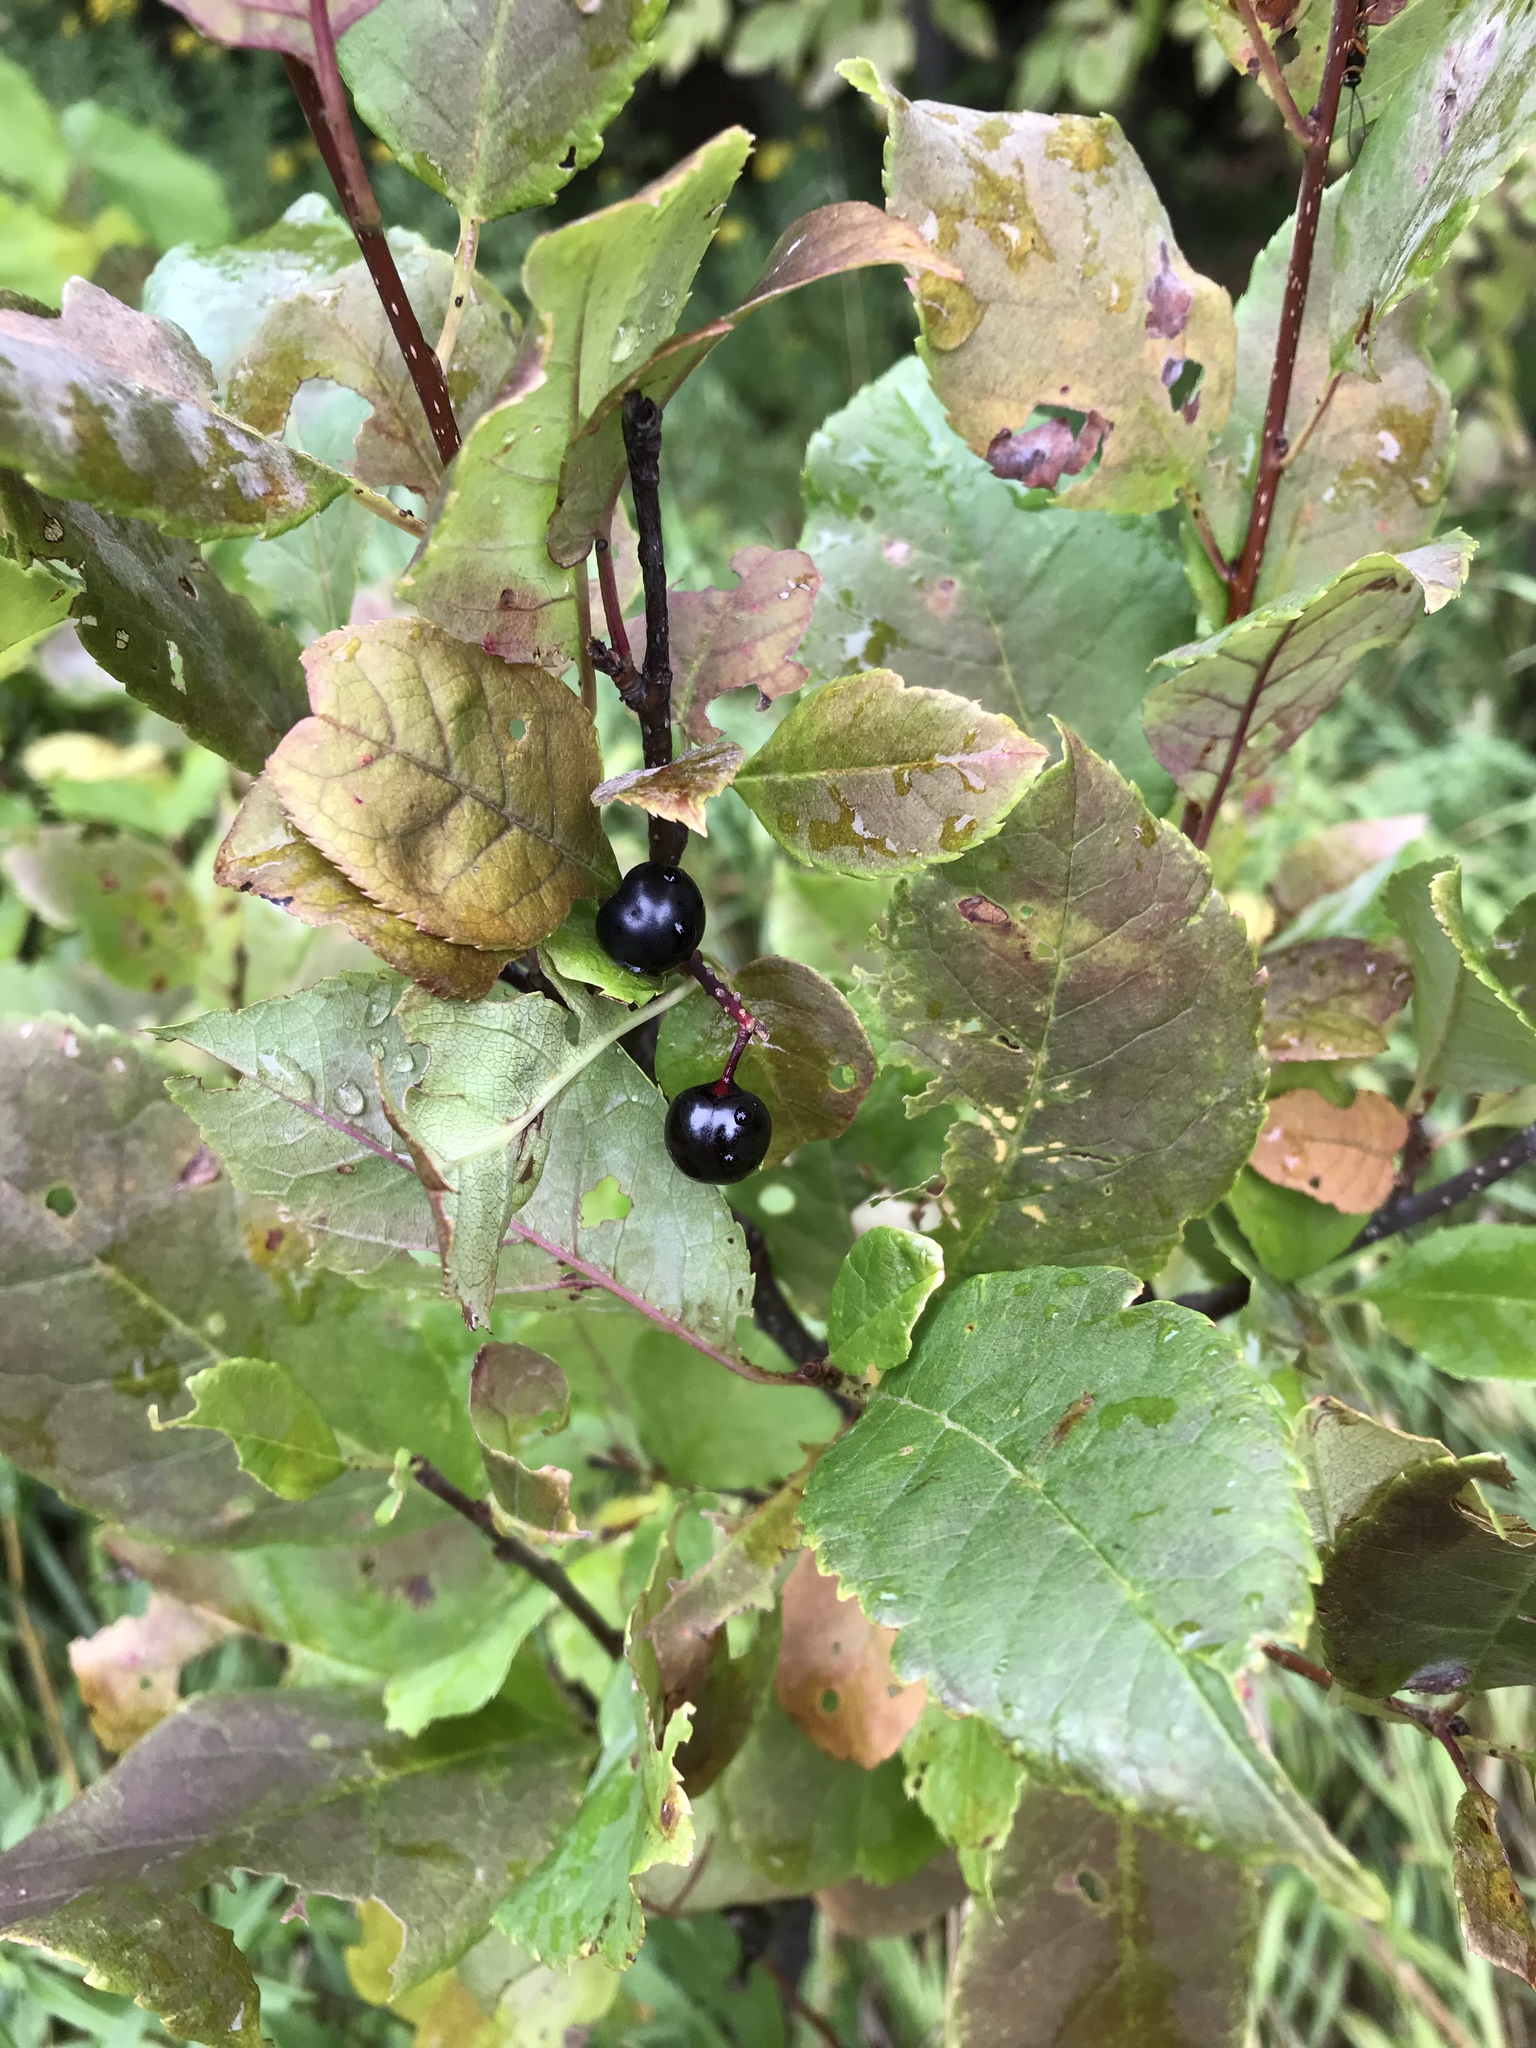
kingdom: Plantae
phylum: Tracheophyta
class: Magnoliopsida
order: Rosales
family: Rosaceae
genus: Prunus
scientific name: Prunus virginiana
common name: Chokecherry
